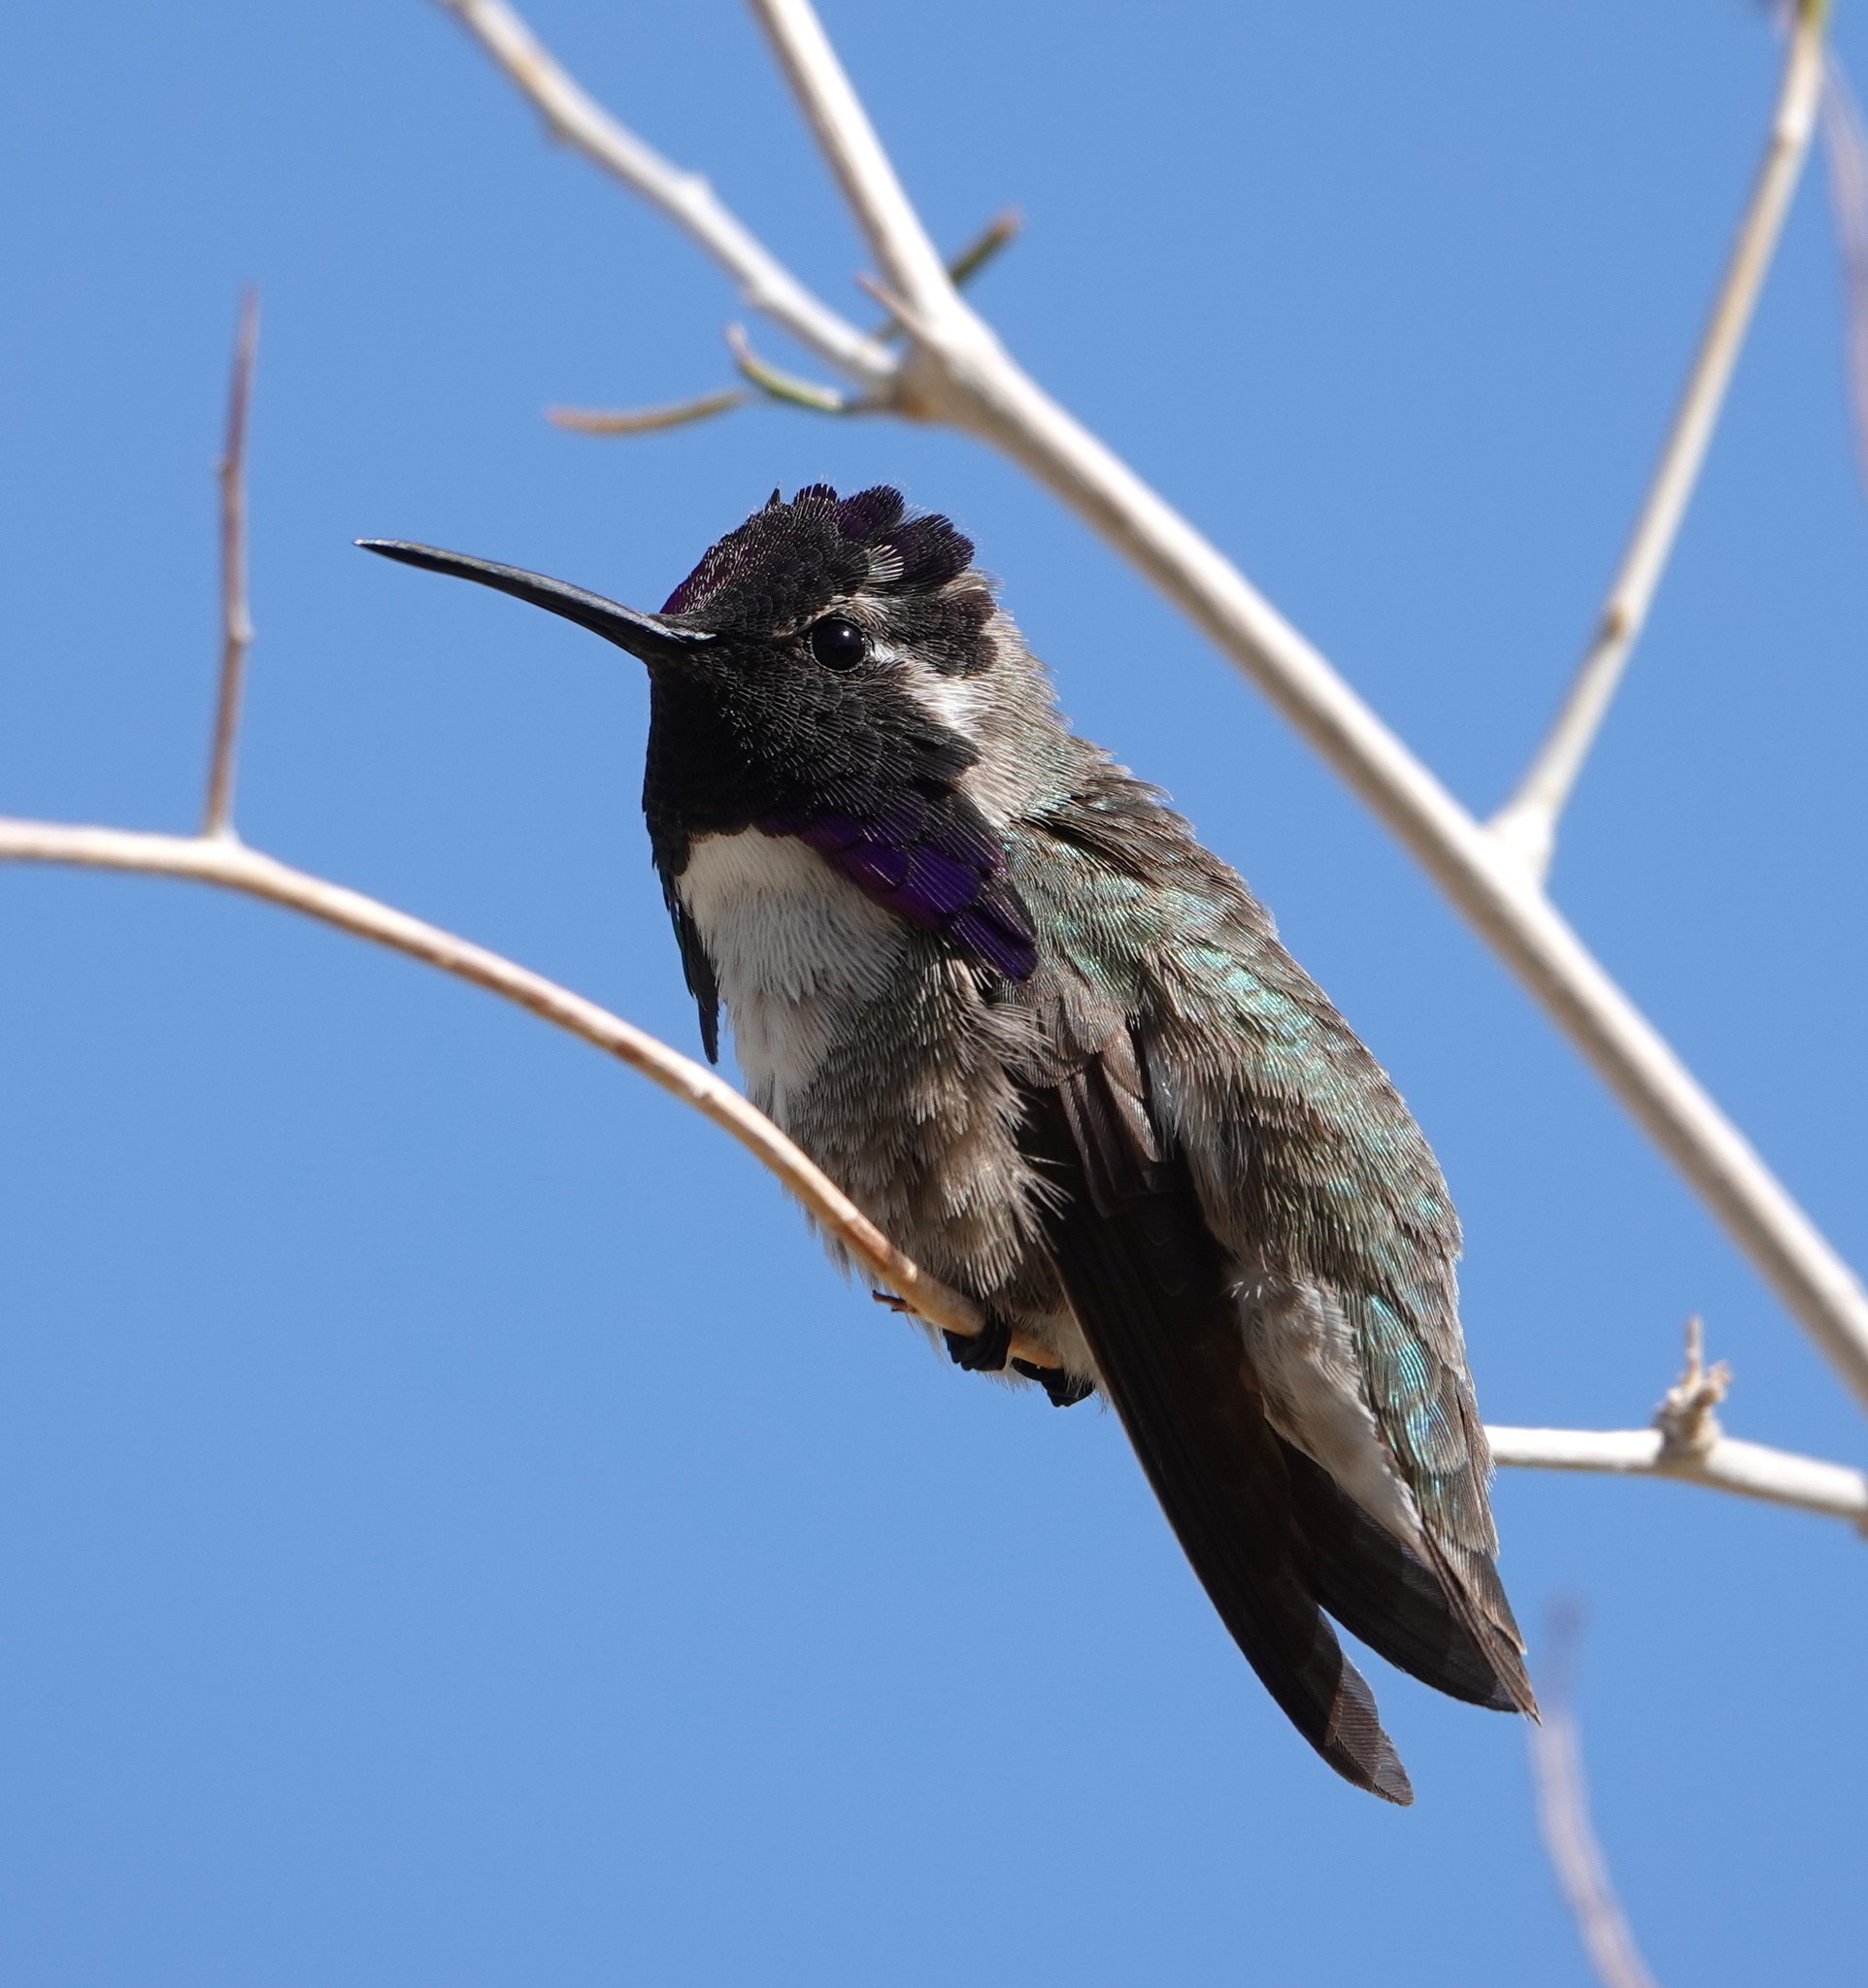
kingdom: Animalia
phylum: Chordata
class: Aves
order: Apodiformes
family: Trochilidae
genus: Calypte
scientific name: Calypte costae
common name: Costa's hummingbird
